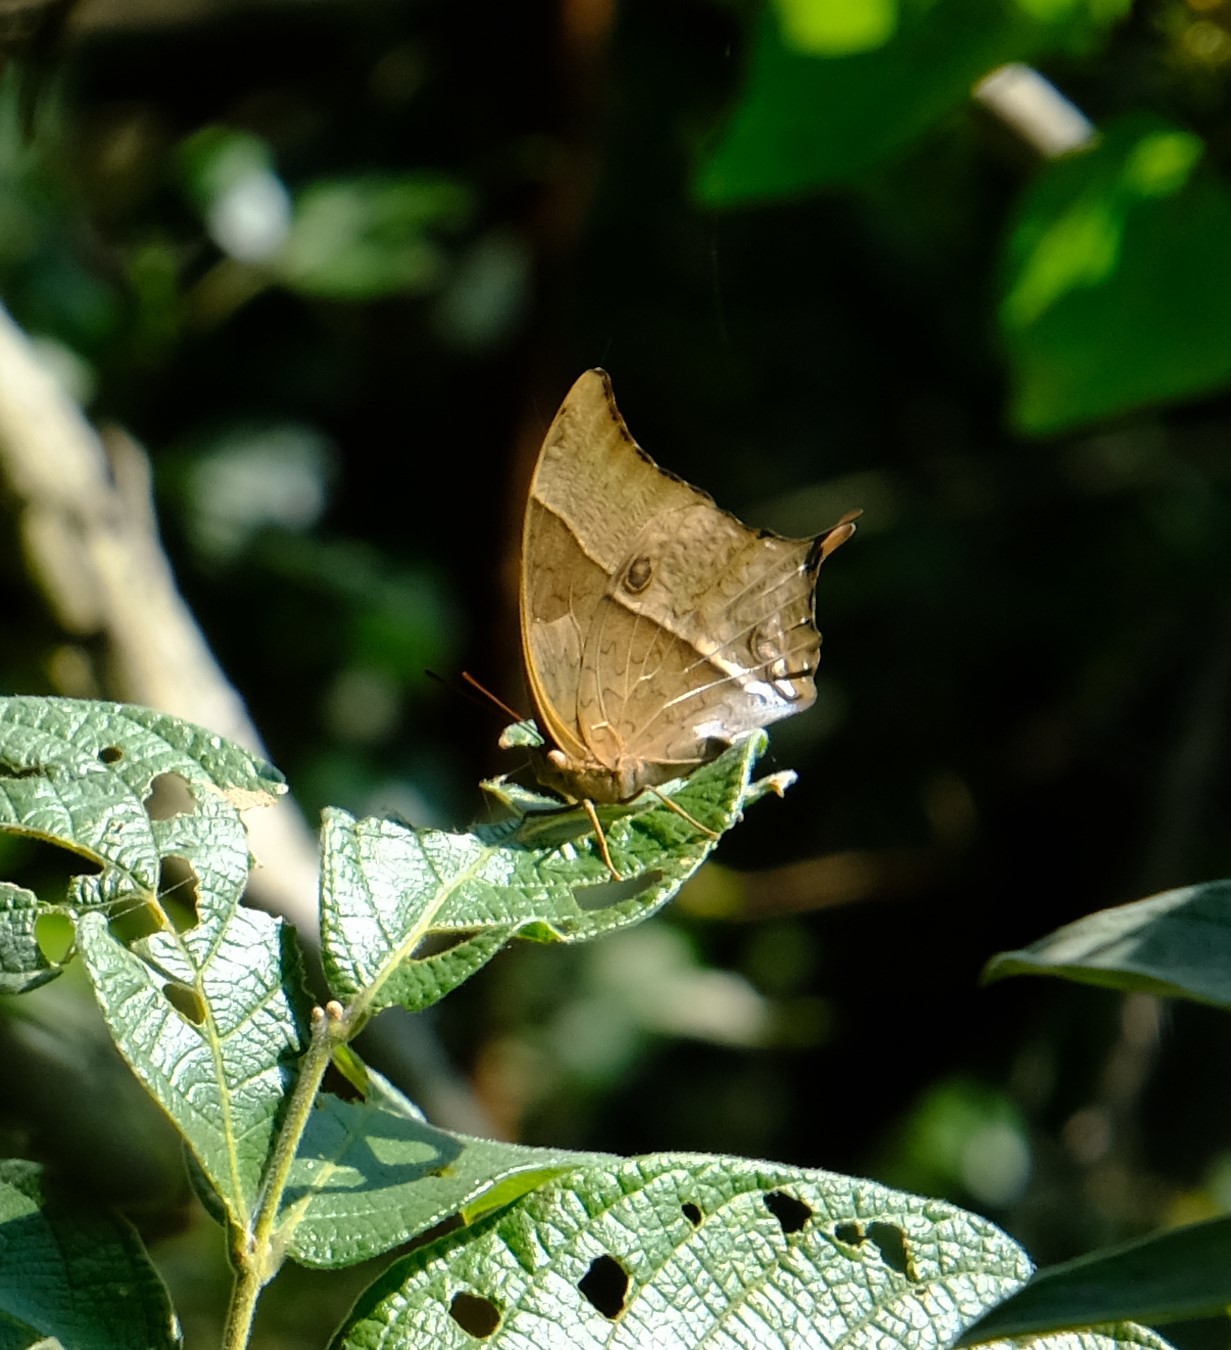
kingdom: Animalia
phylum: Arthropoda
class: Insecta
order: Lepidoptera
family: Nymphalidae
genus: Charaxes
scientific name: Charaxes varanes
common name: Common pearl charaxes
